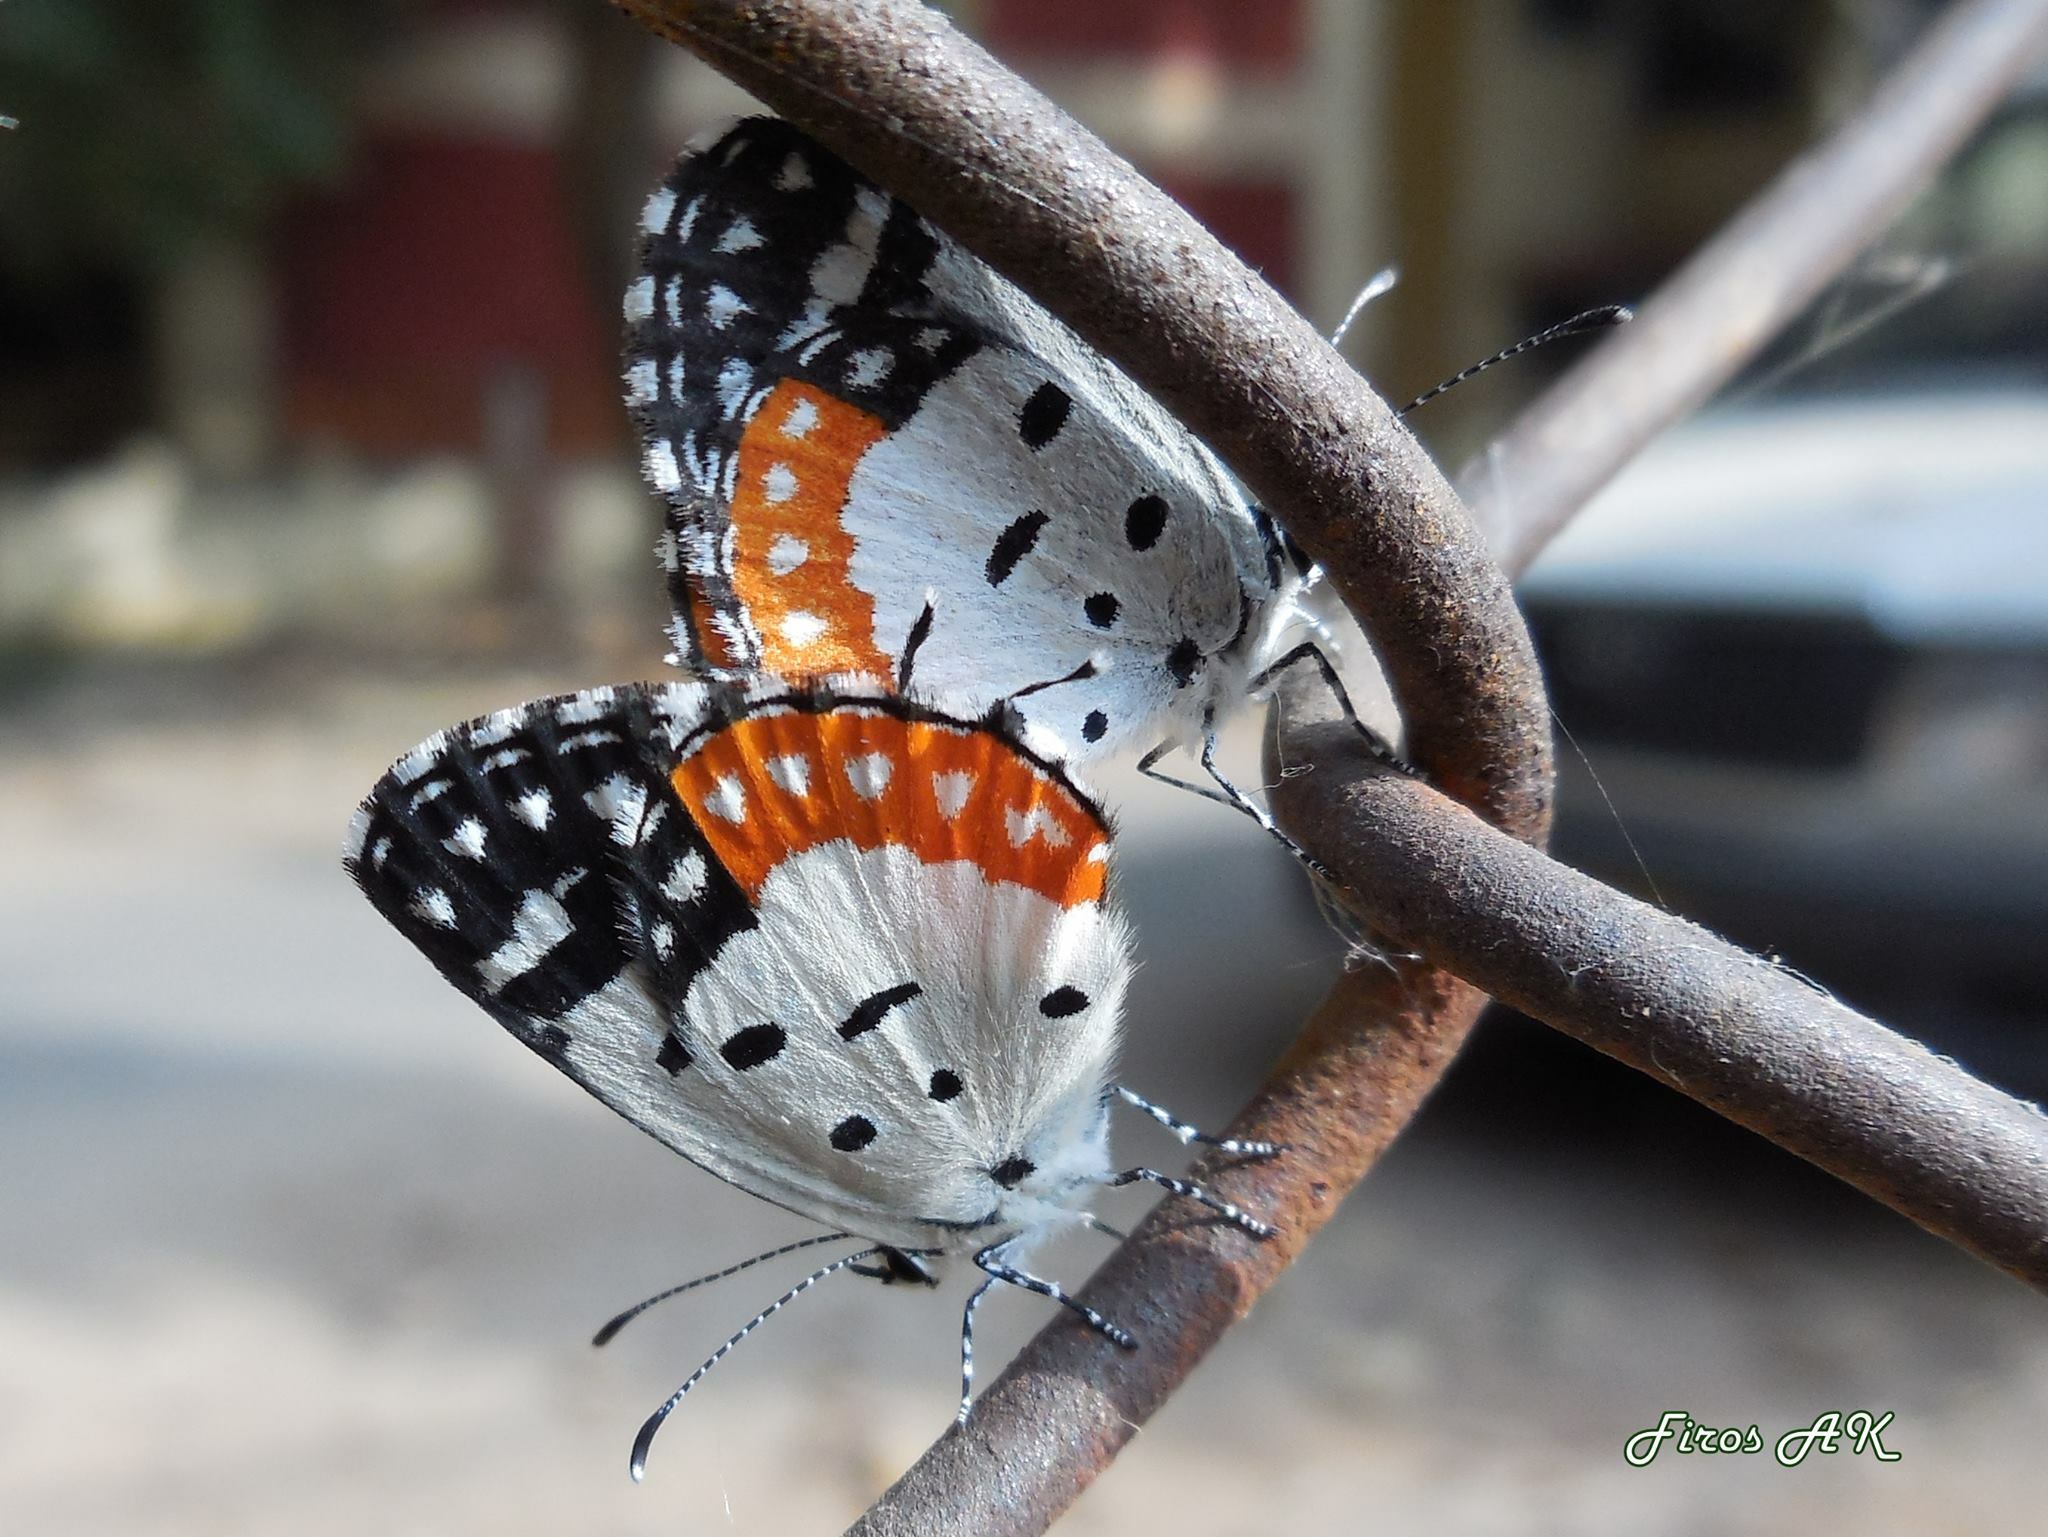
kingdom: Animalia
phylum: Arthropoda
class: Insecta
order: Lepidoptera
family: Lycaenidae
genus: Talicada
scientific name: Talicada nyseus
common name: Red pierrot
